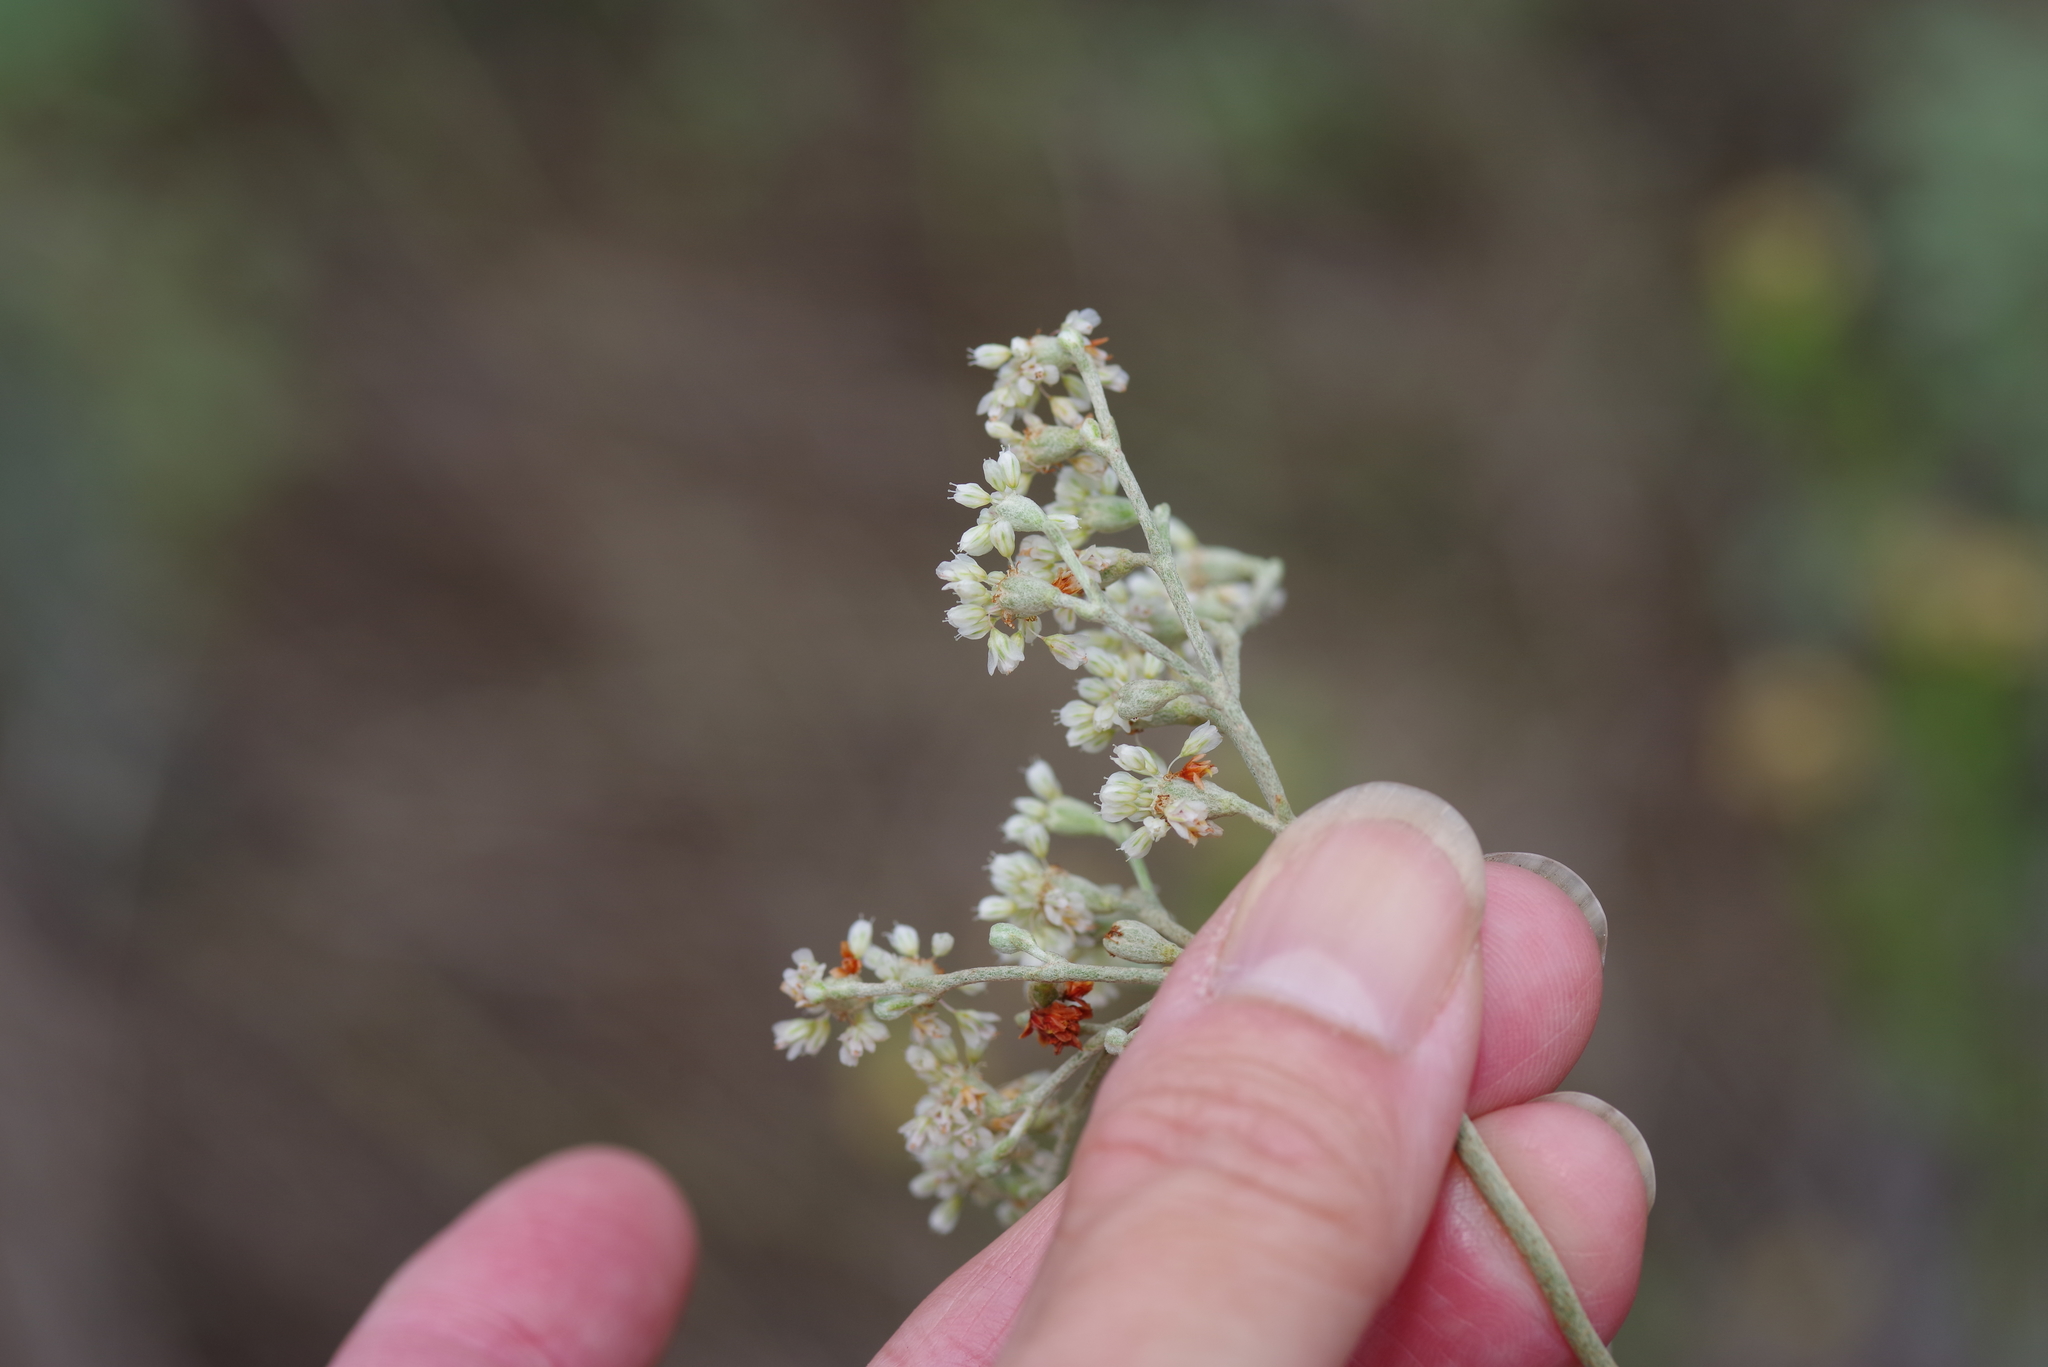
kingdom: Plantae
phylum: Tracheophyta
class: Magnoliopsida
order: Caryophyllales
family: Polygonaceae
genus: Eriogonum
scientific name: Eriogonum annuum
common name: Annual wild buckwheat
